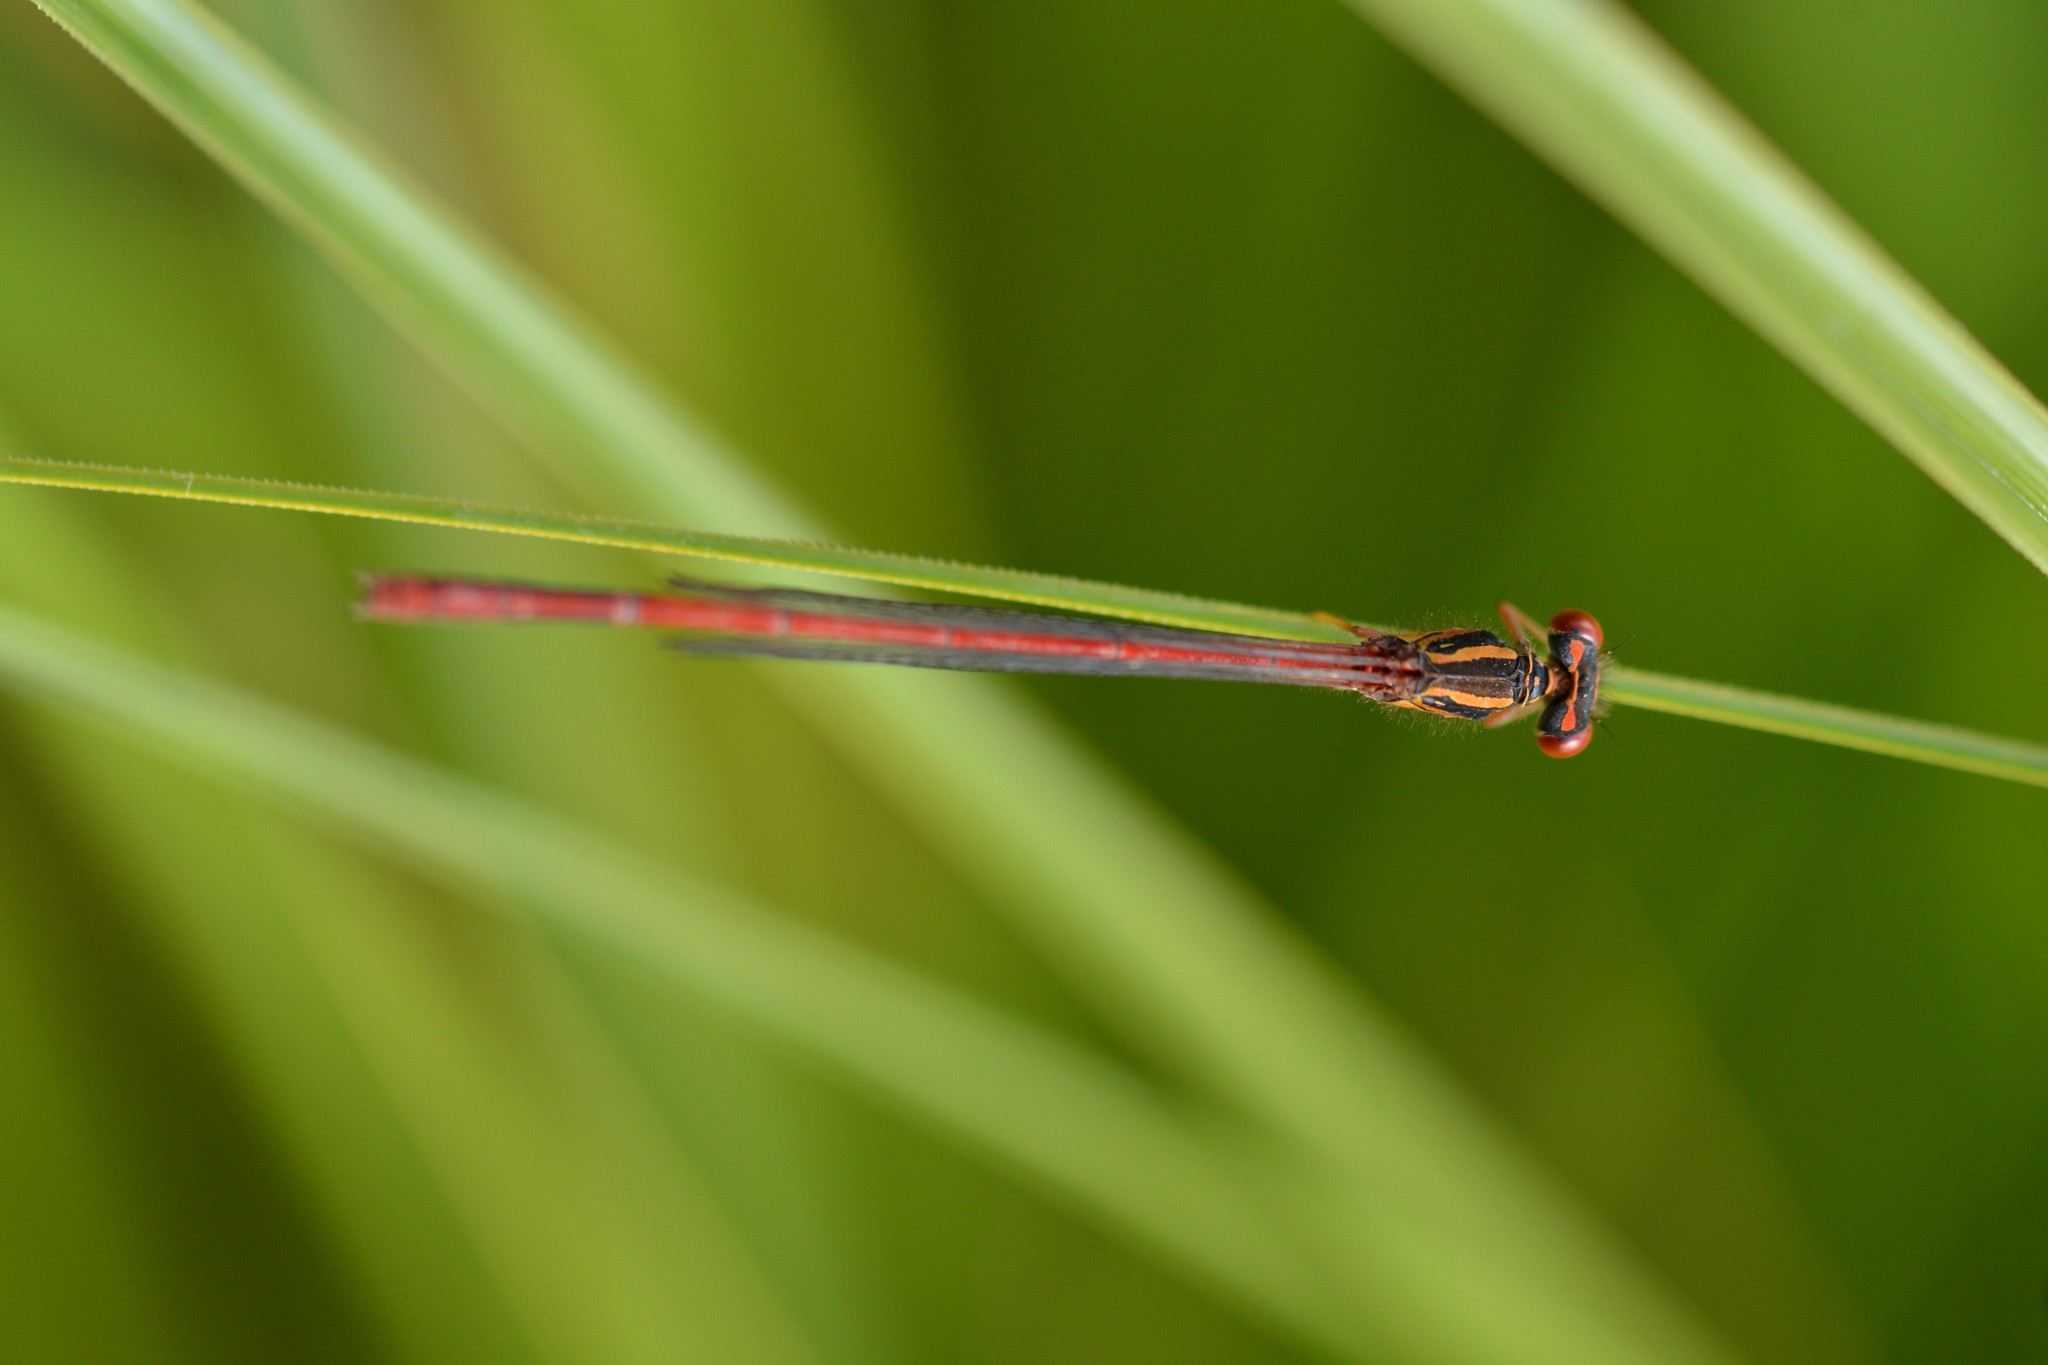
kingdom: Animalia
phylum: Arthropoda
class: Insecta
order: Odonata
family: Coenagrionidae
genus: Xanthocnemis
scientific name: Xanthocnemis zealandica
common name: Common redcoat damselfly
